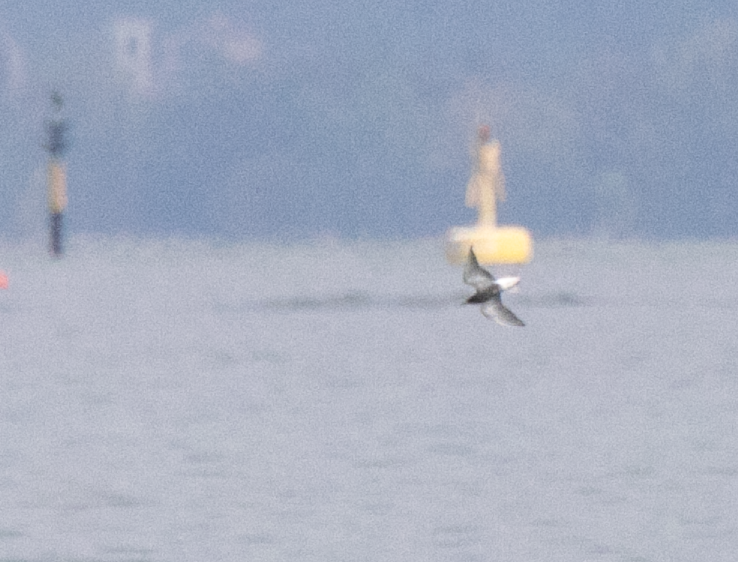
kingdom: Animalia
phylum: Chordata
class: Aves
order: Charadriiformes
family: Laridae
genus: Chlidonias
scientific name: Chlidonias niger
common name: Black tern
